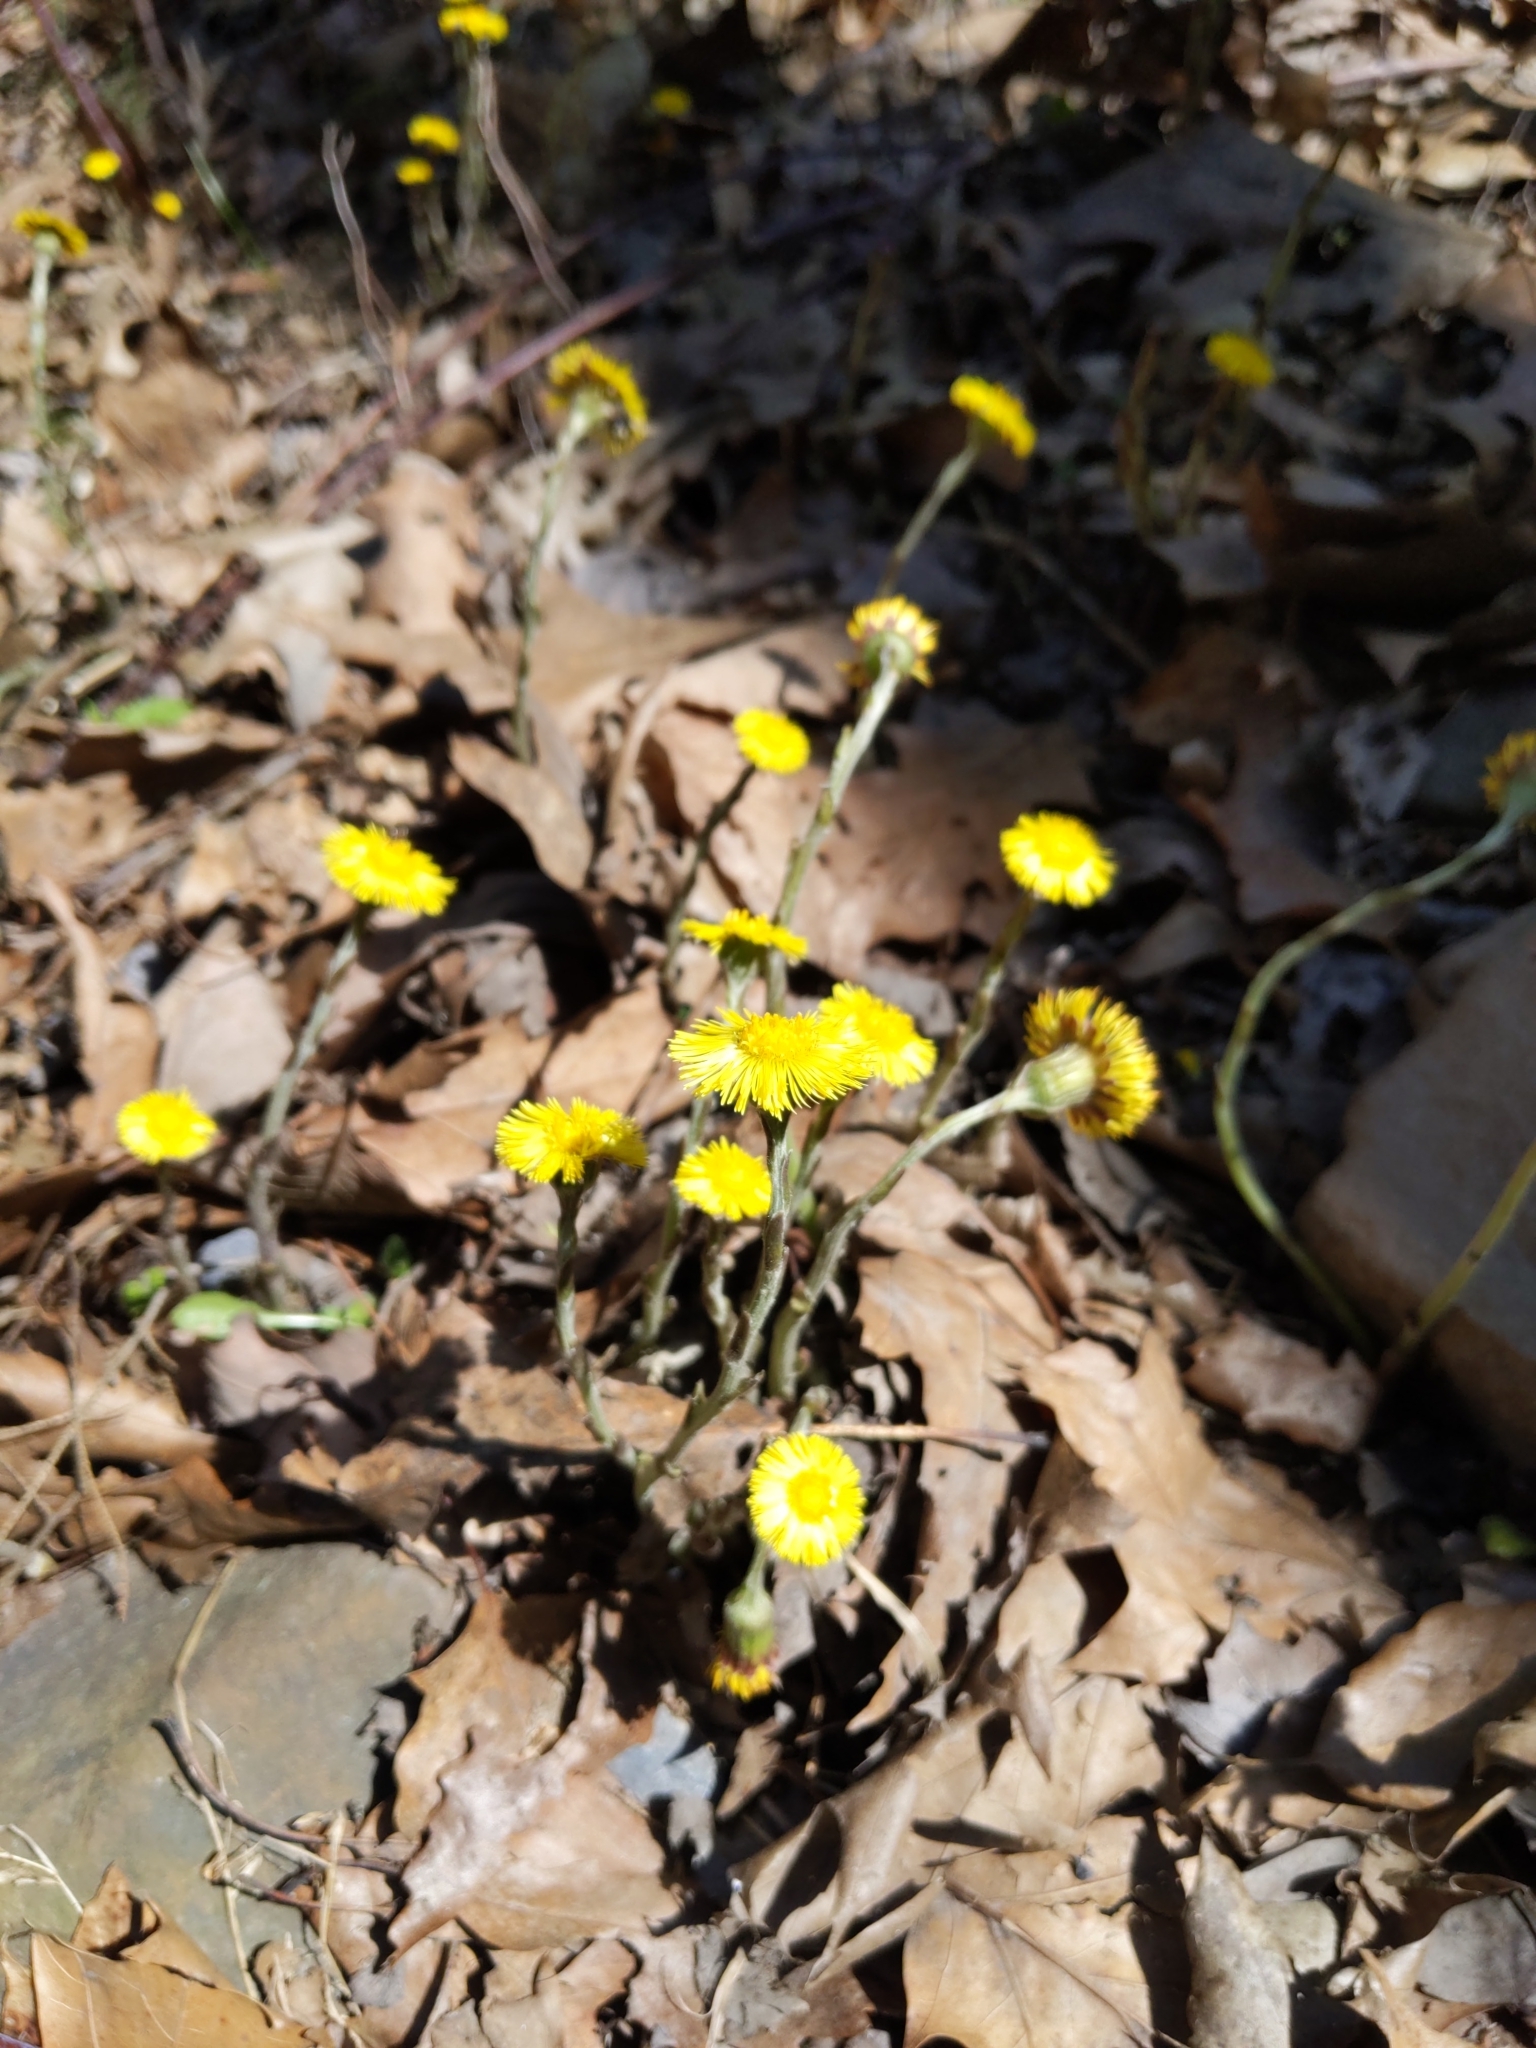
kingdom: Plantae
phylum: Tracheophyta
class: Magnoliopsida
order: Asterales
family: Asteraceae
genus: Tussilago
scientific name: Tussilago farfara
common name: Coltsfoot
